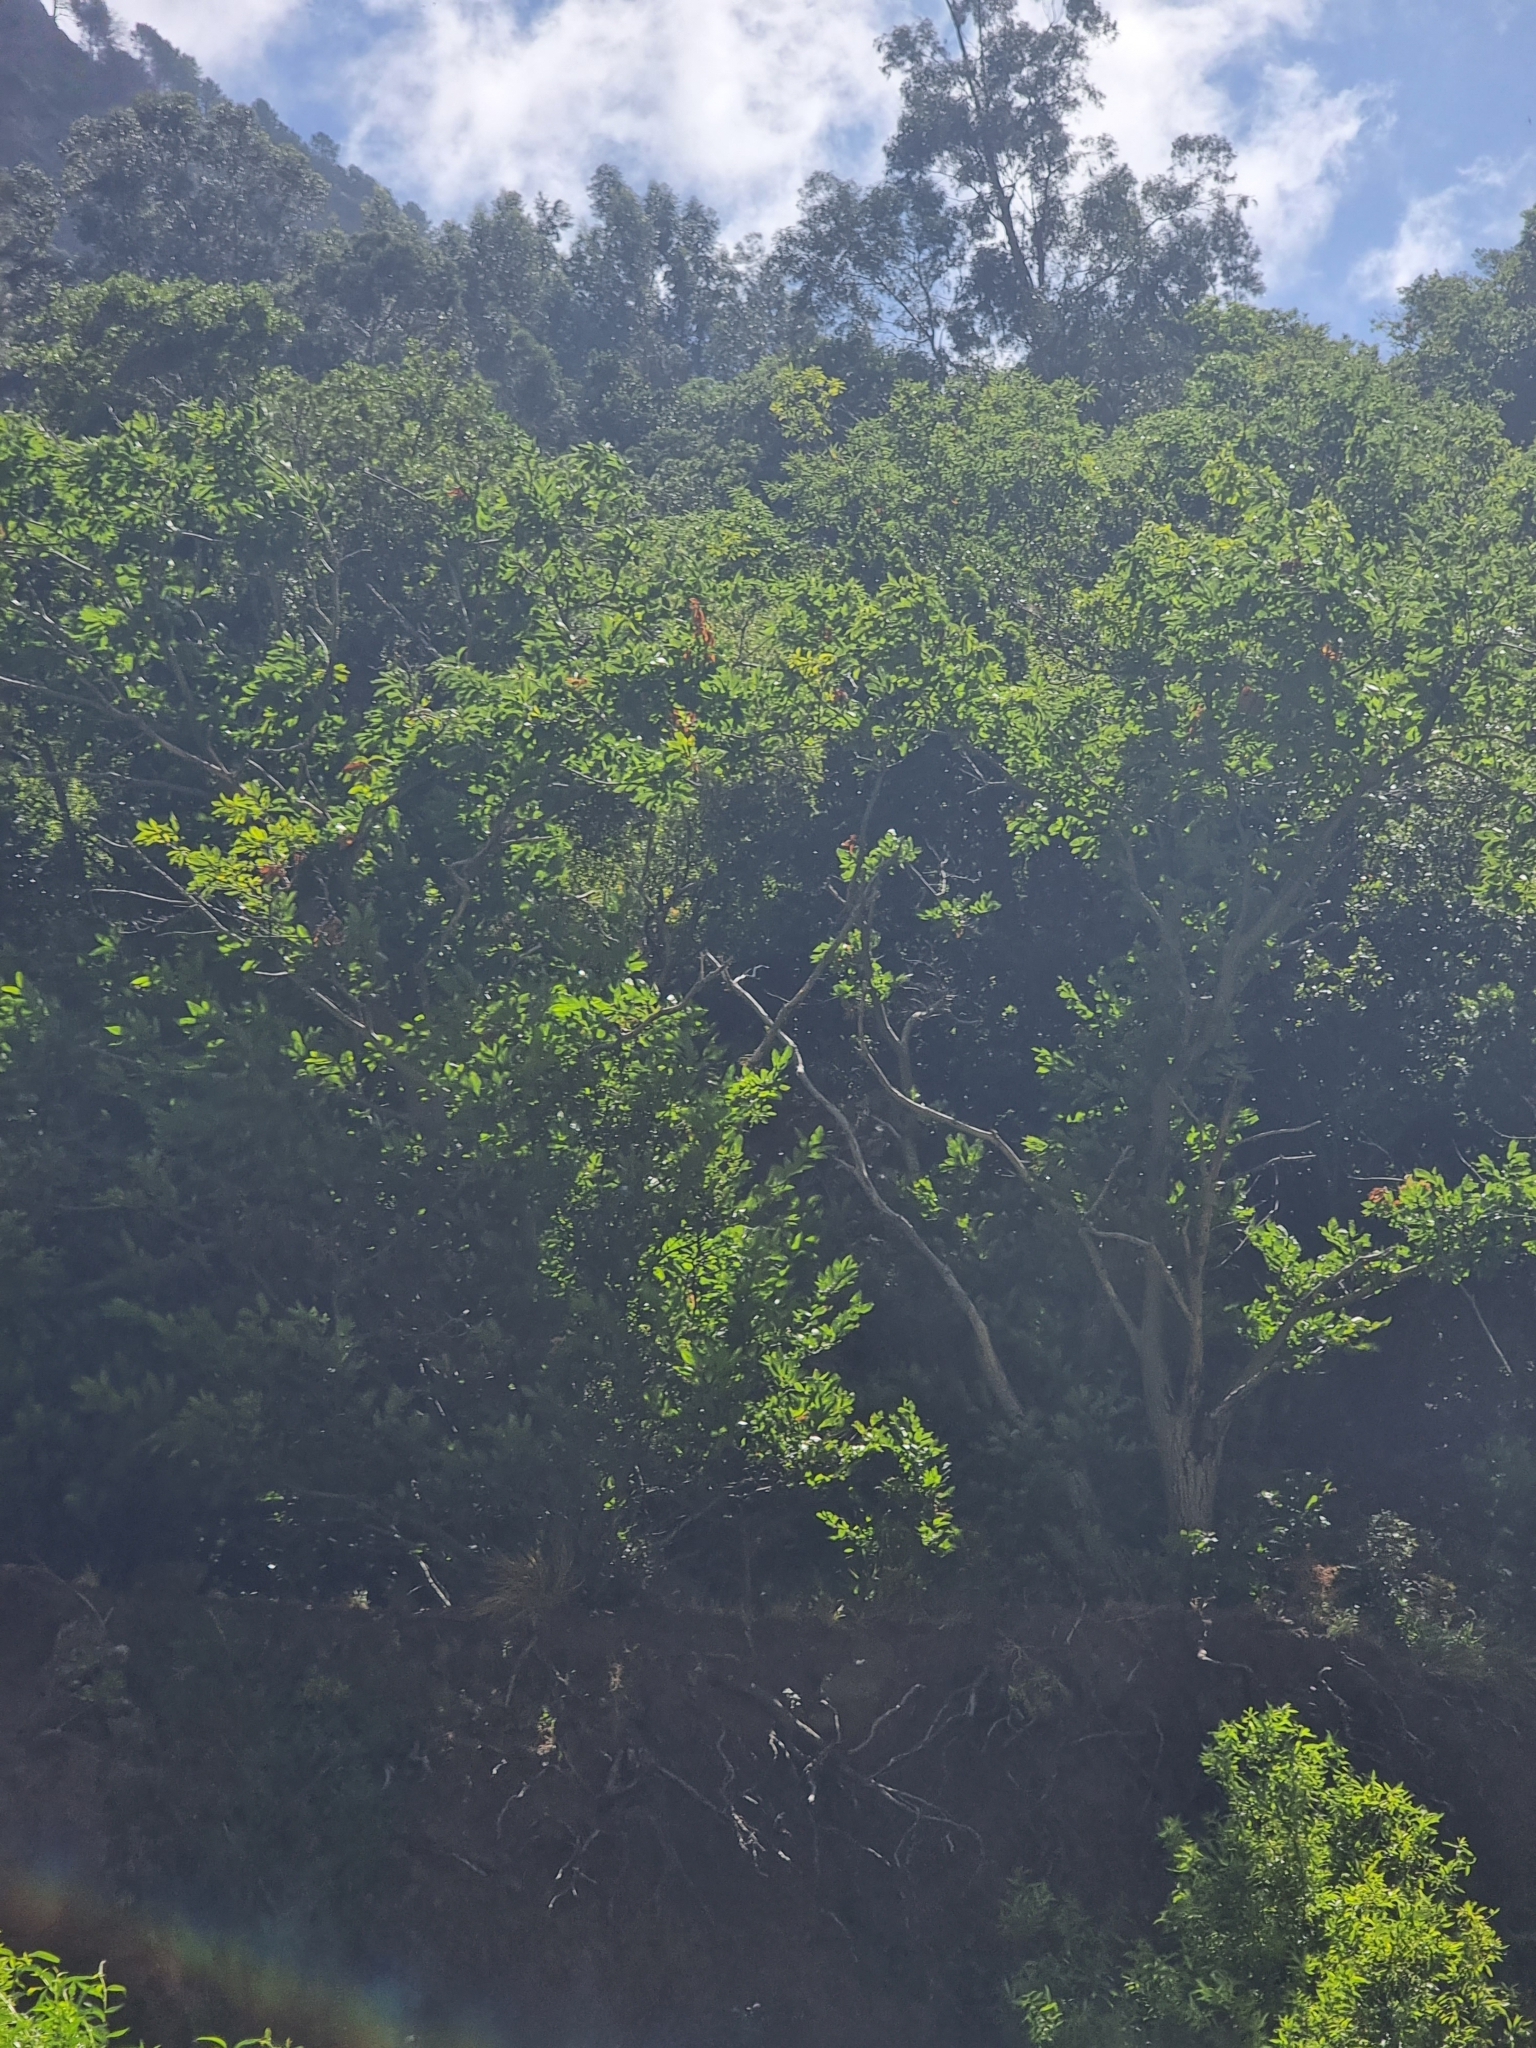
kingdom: Plantae
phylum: Tracheophyta
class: Magnoliopsida
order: Fagales
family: Fagaceae
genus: Castanea
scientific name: Castanea sativa
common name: Sweet chestnut
